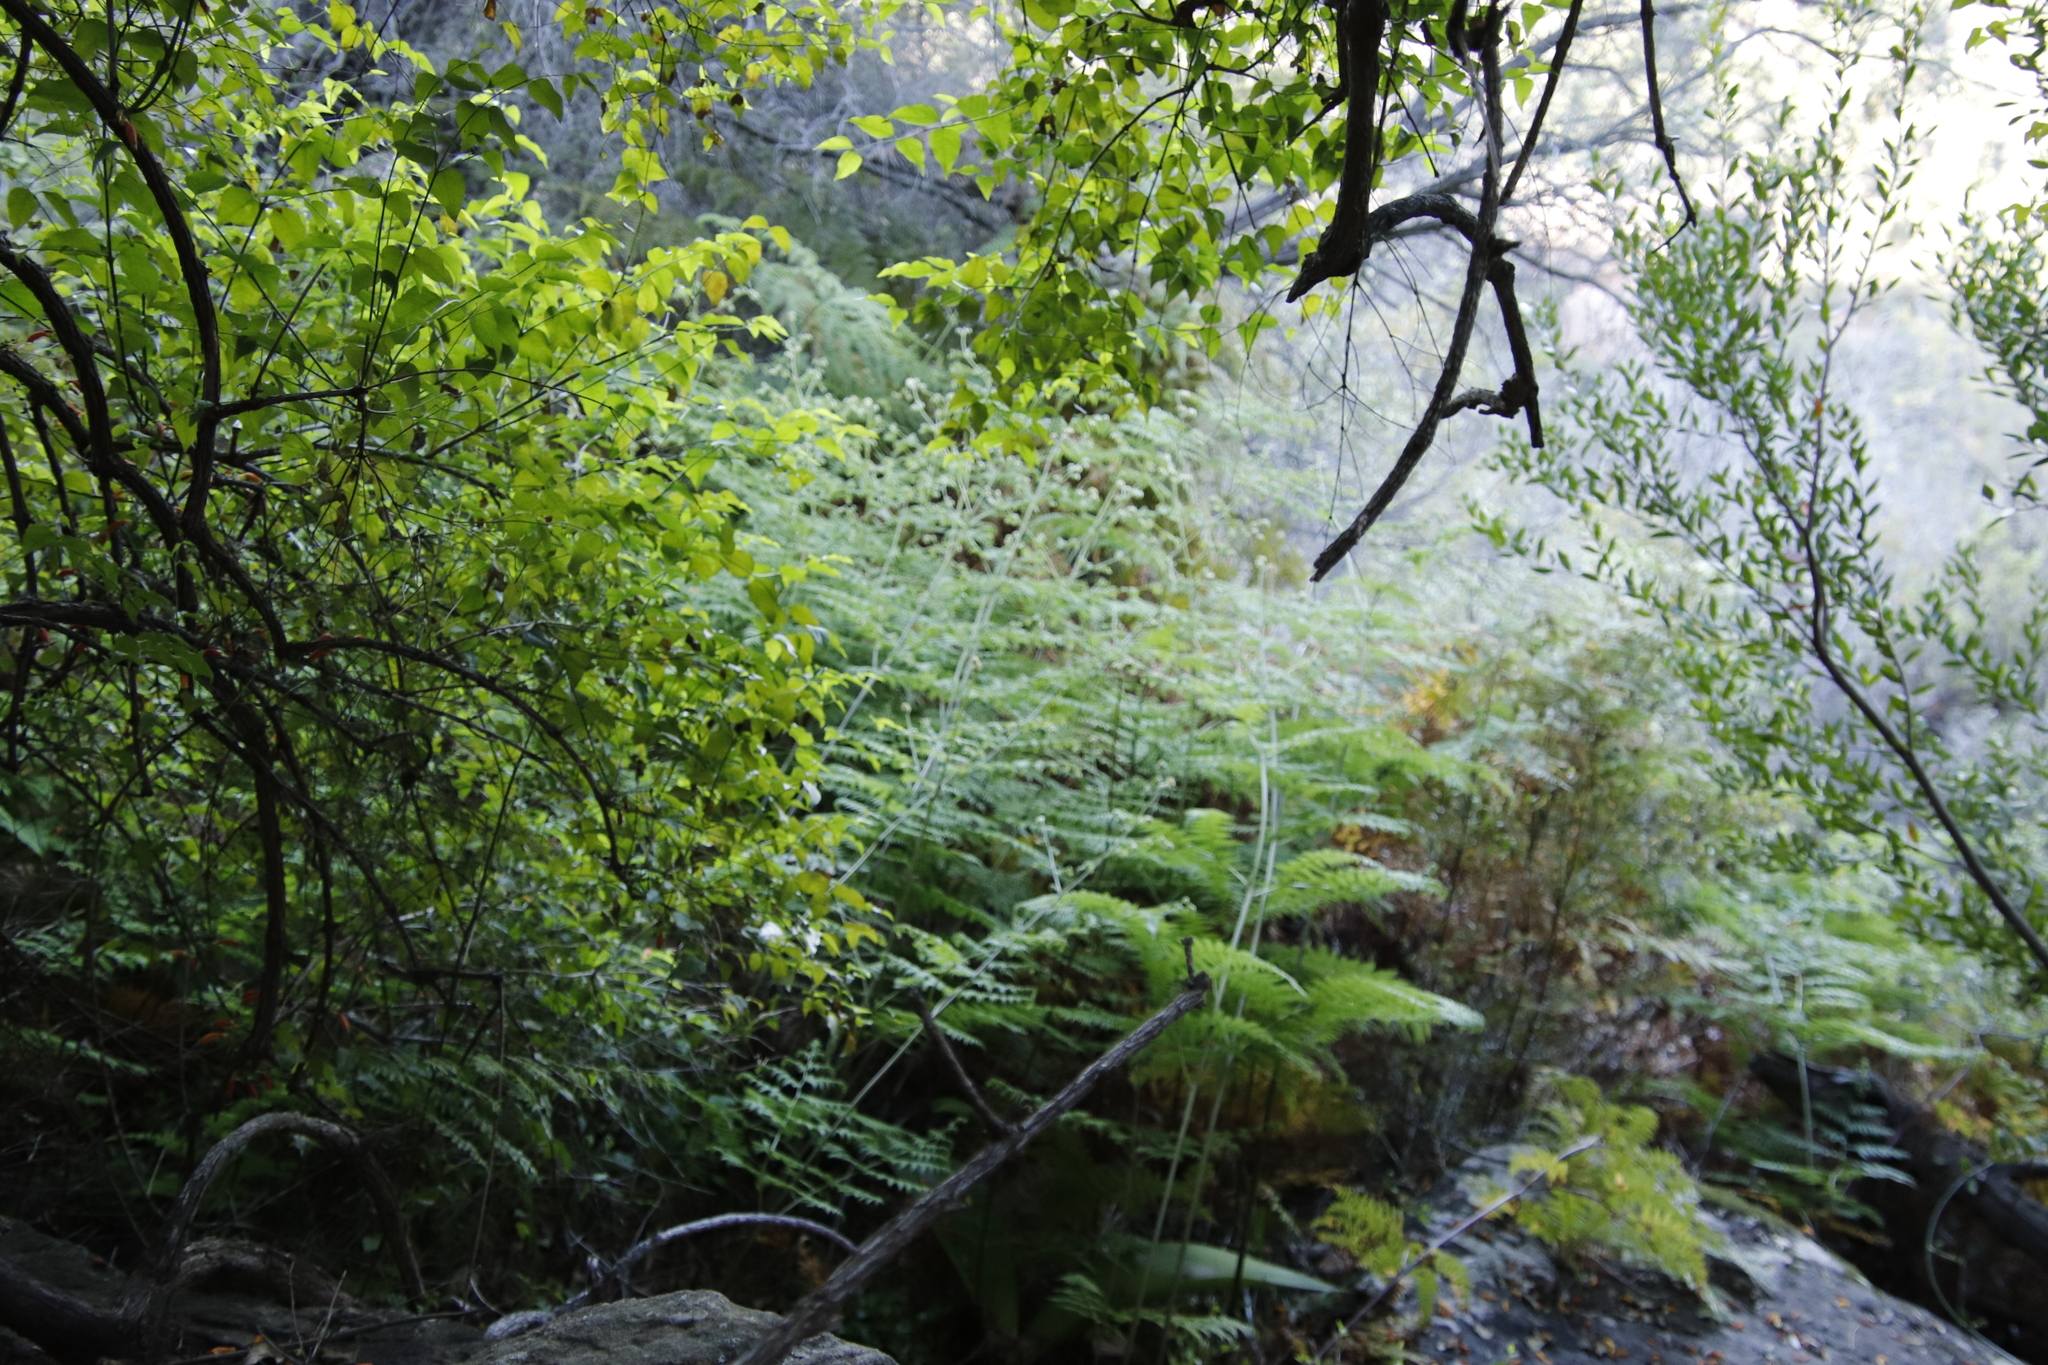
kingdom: Plantae
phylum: Tracheophyta
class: Polypodiopsida
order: Polypodiales
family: Dennstaedtiaceae
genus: Pteridium
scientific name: Pteridium aquilinum
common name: Bracken
